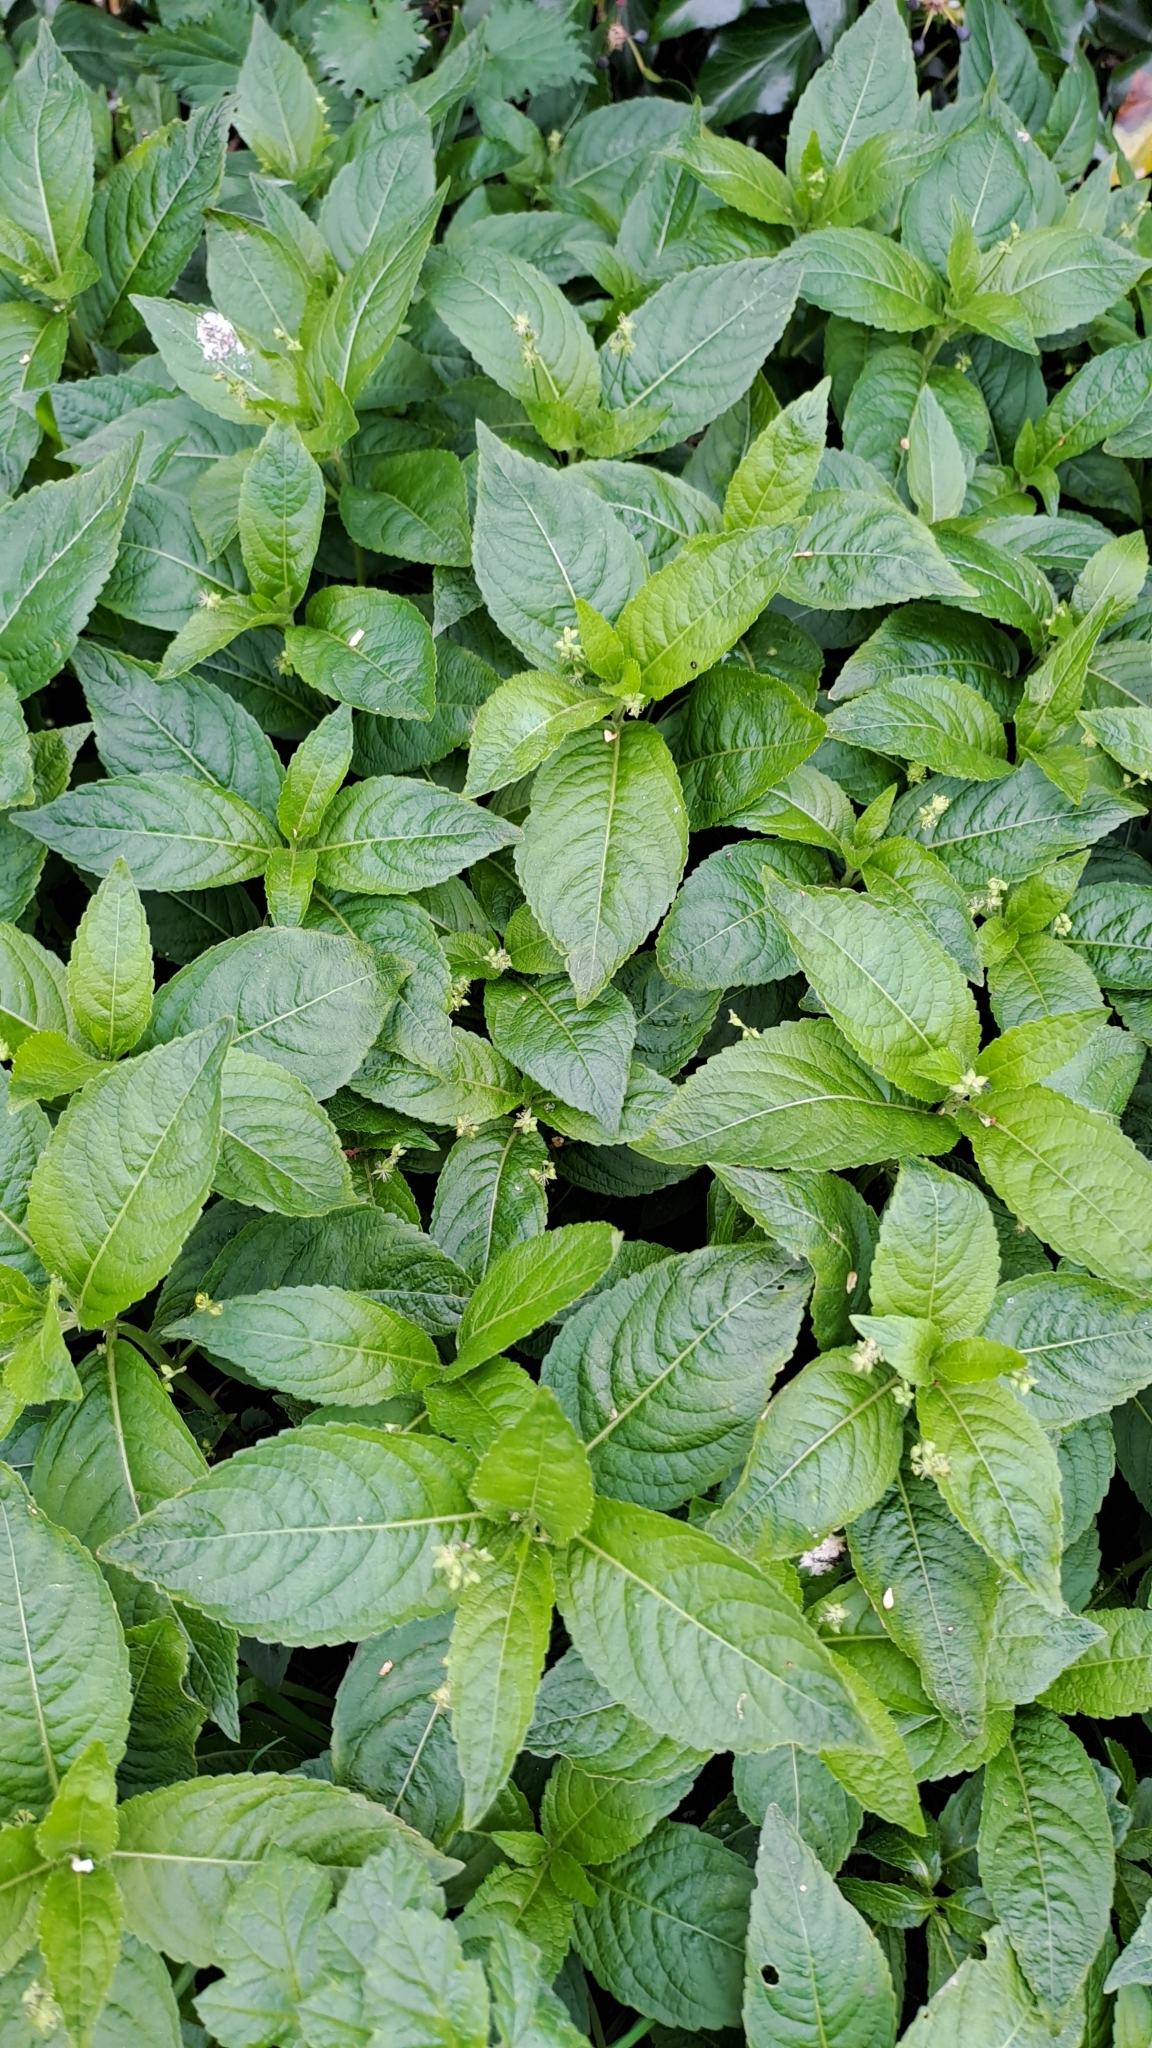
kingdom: Plantae
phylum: Tracheophyta
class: Magnoliopsida
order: Malpighiales
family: Euphorbiaceae
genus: Mercurialis
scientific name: Mercurialis perennis
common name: Dog mercury
